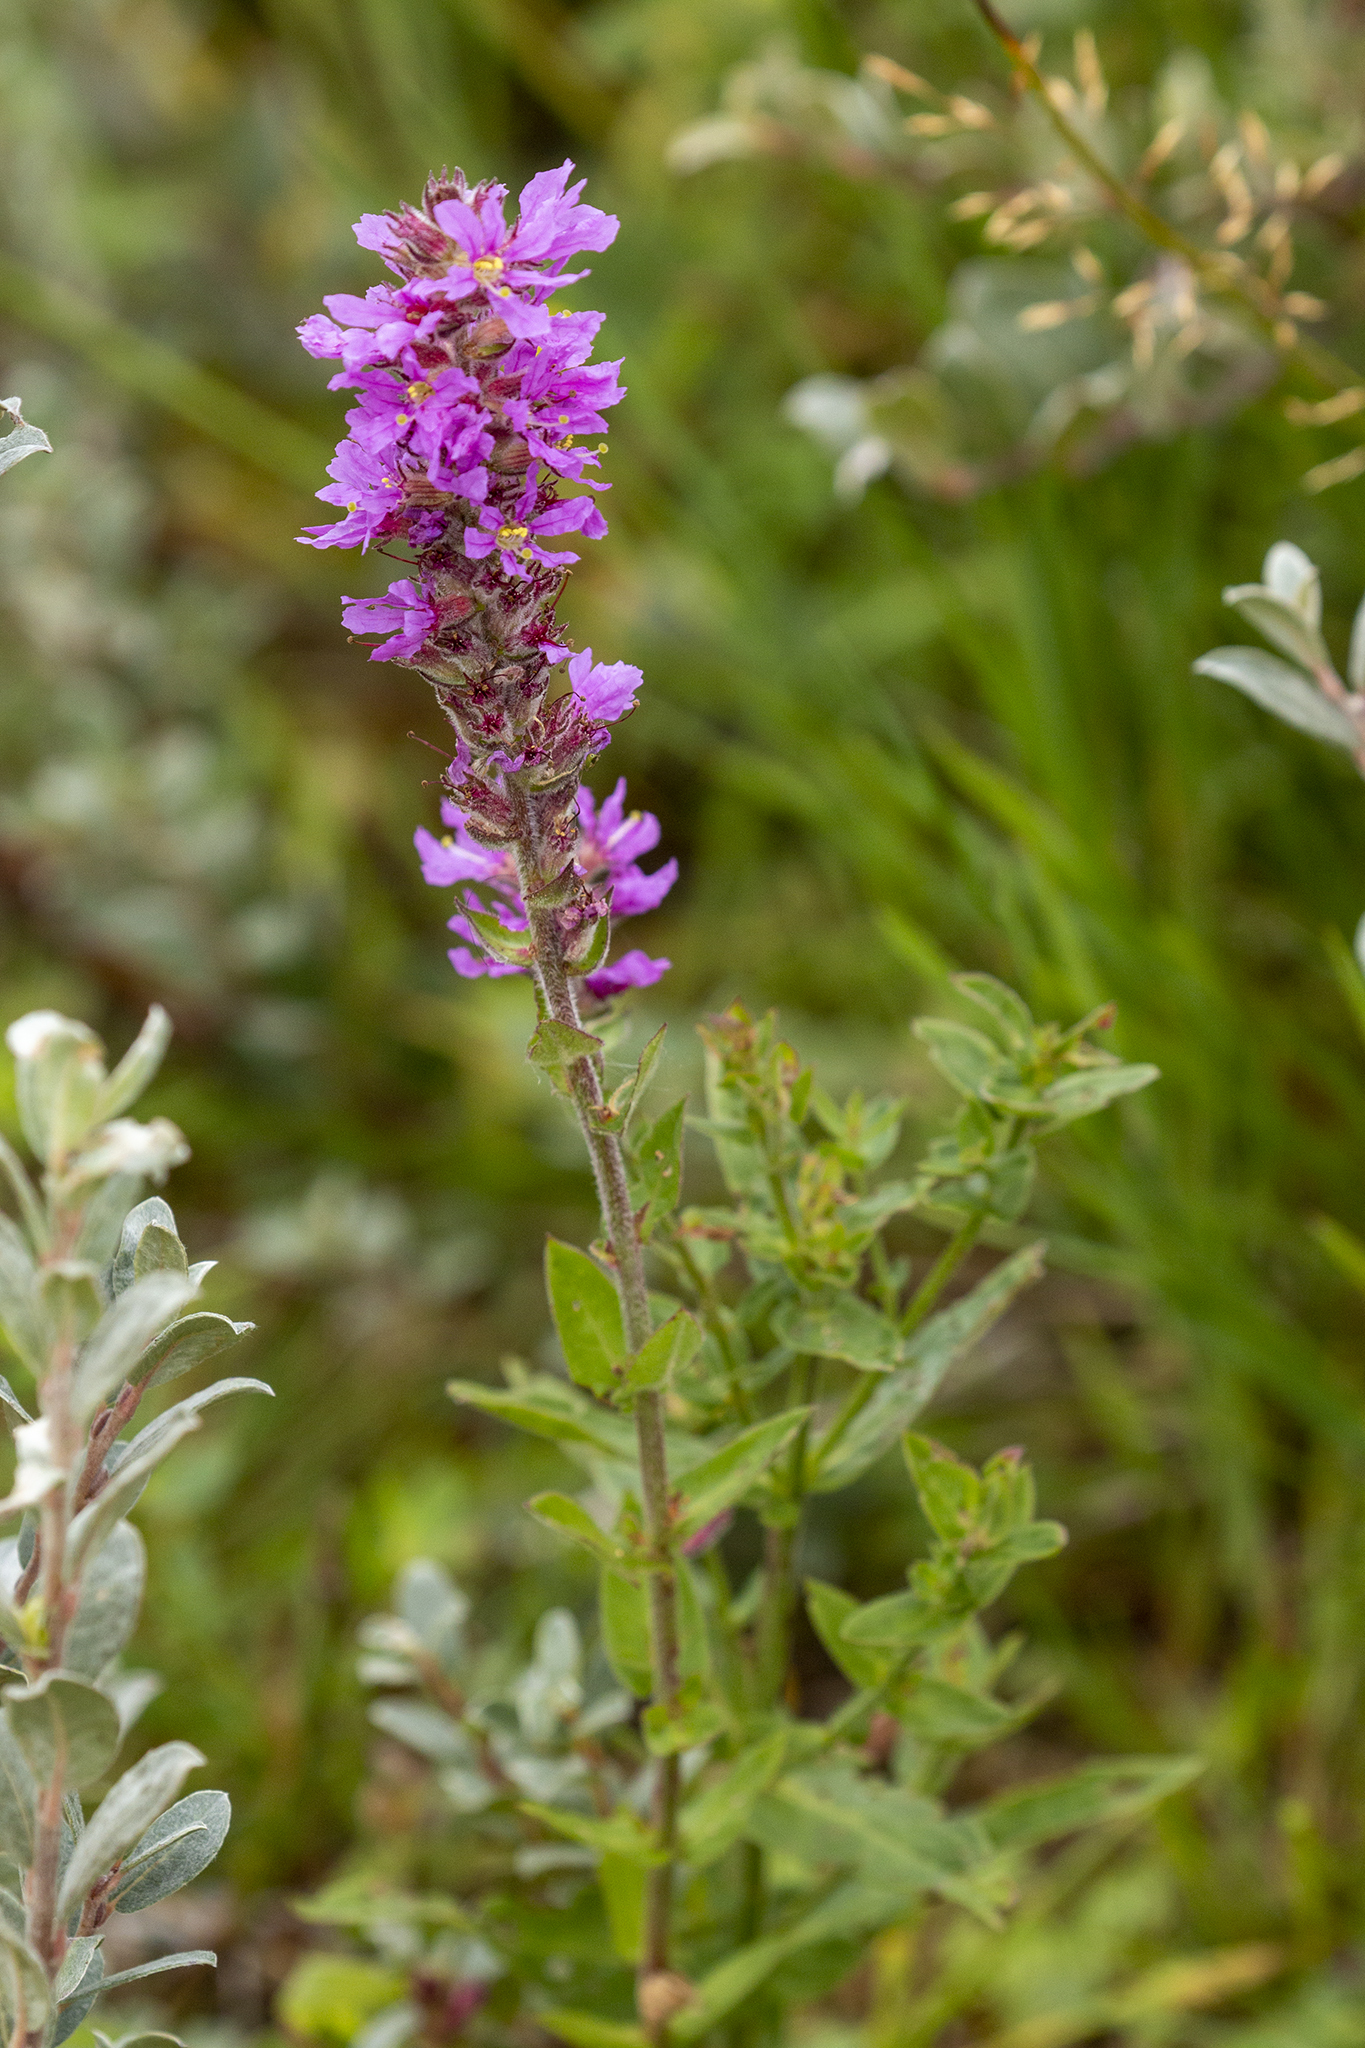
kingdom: Plantae
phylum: Tracheophyta
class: Magnoliopsida
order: Myrtales
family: Lythraceae
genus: Lythrum
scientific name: Lythrum salicaria
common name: Purple loosestrife
